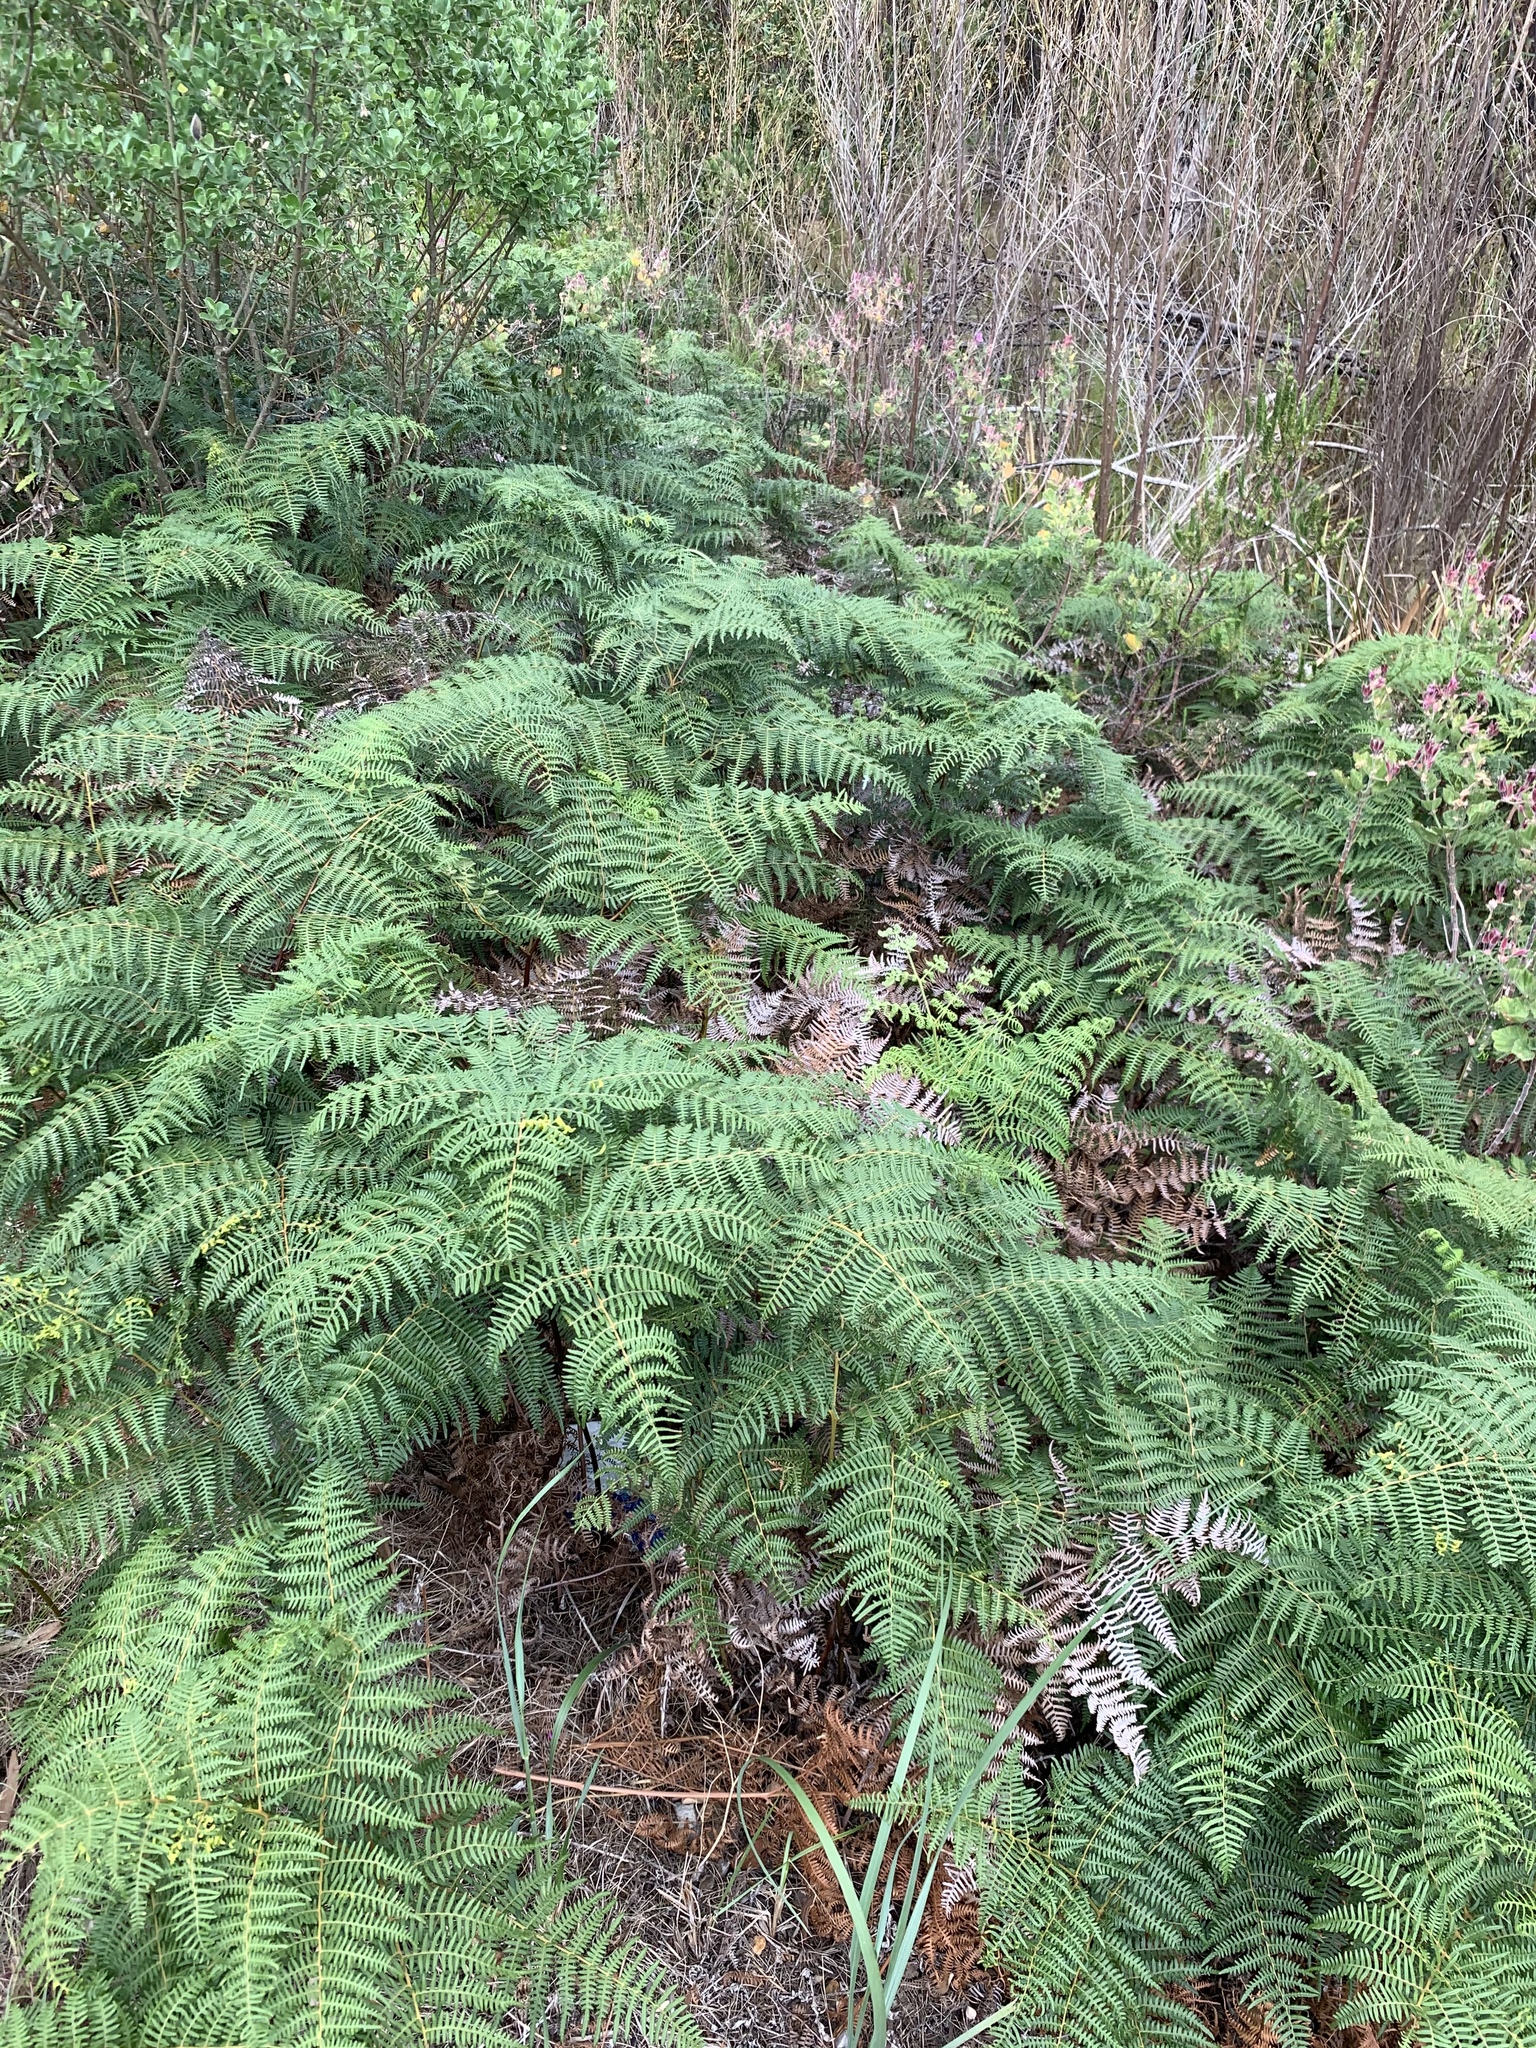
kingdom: Plantae
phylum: Tracheophyta
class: Polypodiopsida
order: Polypodiales
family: Dennstaedtiaceae
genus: Pteridium
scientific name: Pteridium aquilinum
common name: Bracken
